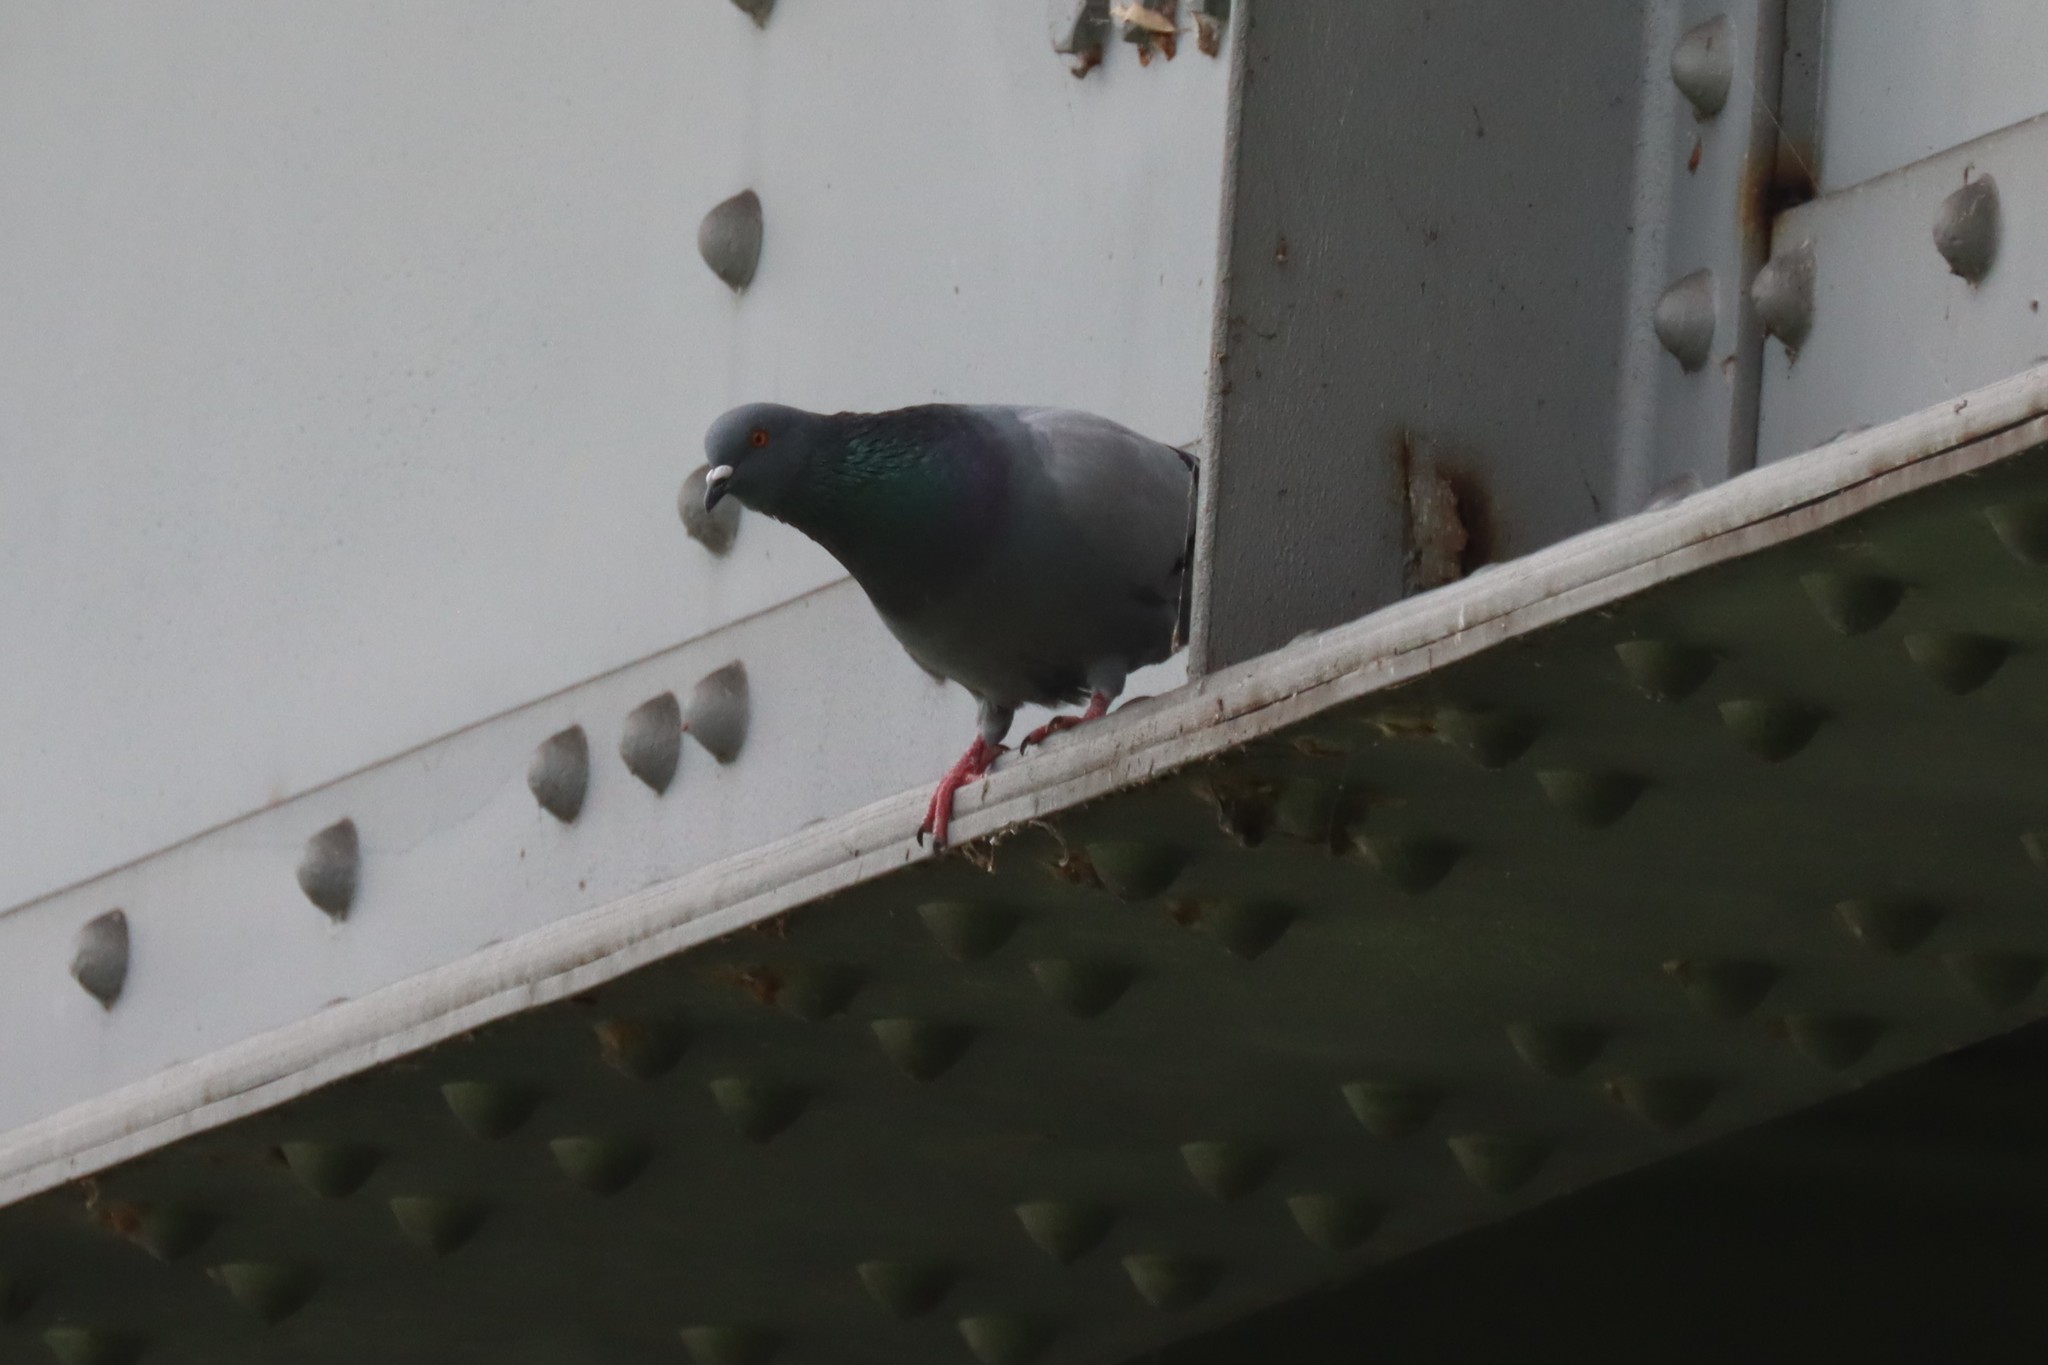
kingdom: Animalia
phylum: Chordata
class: Aves
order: Columbiformes
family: Columbidae
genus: Columba
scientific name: Columba livia
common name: Rock pigeon
